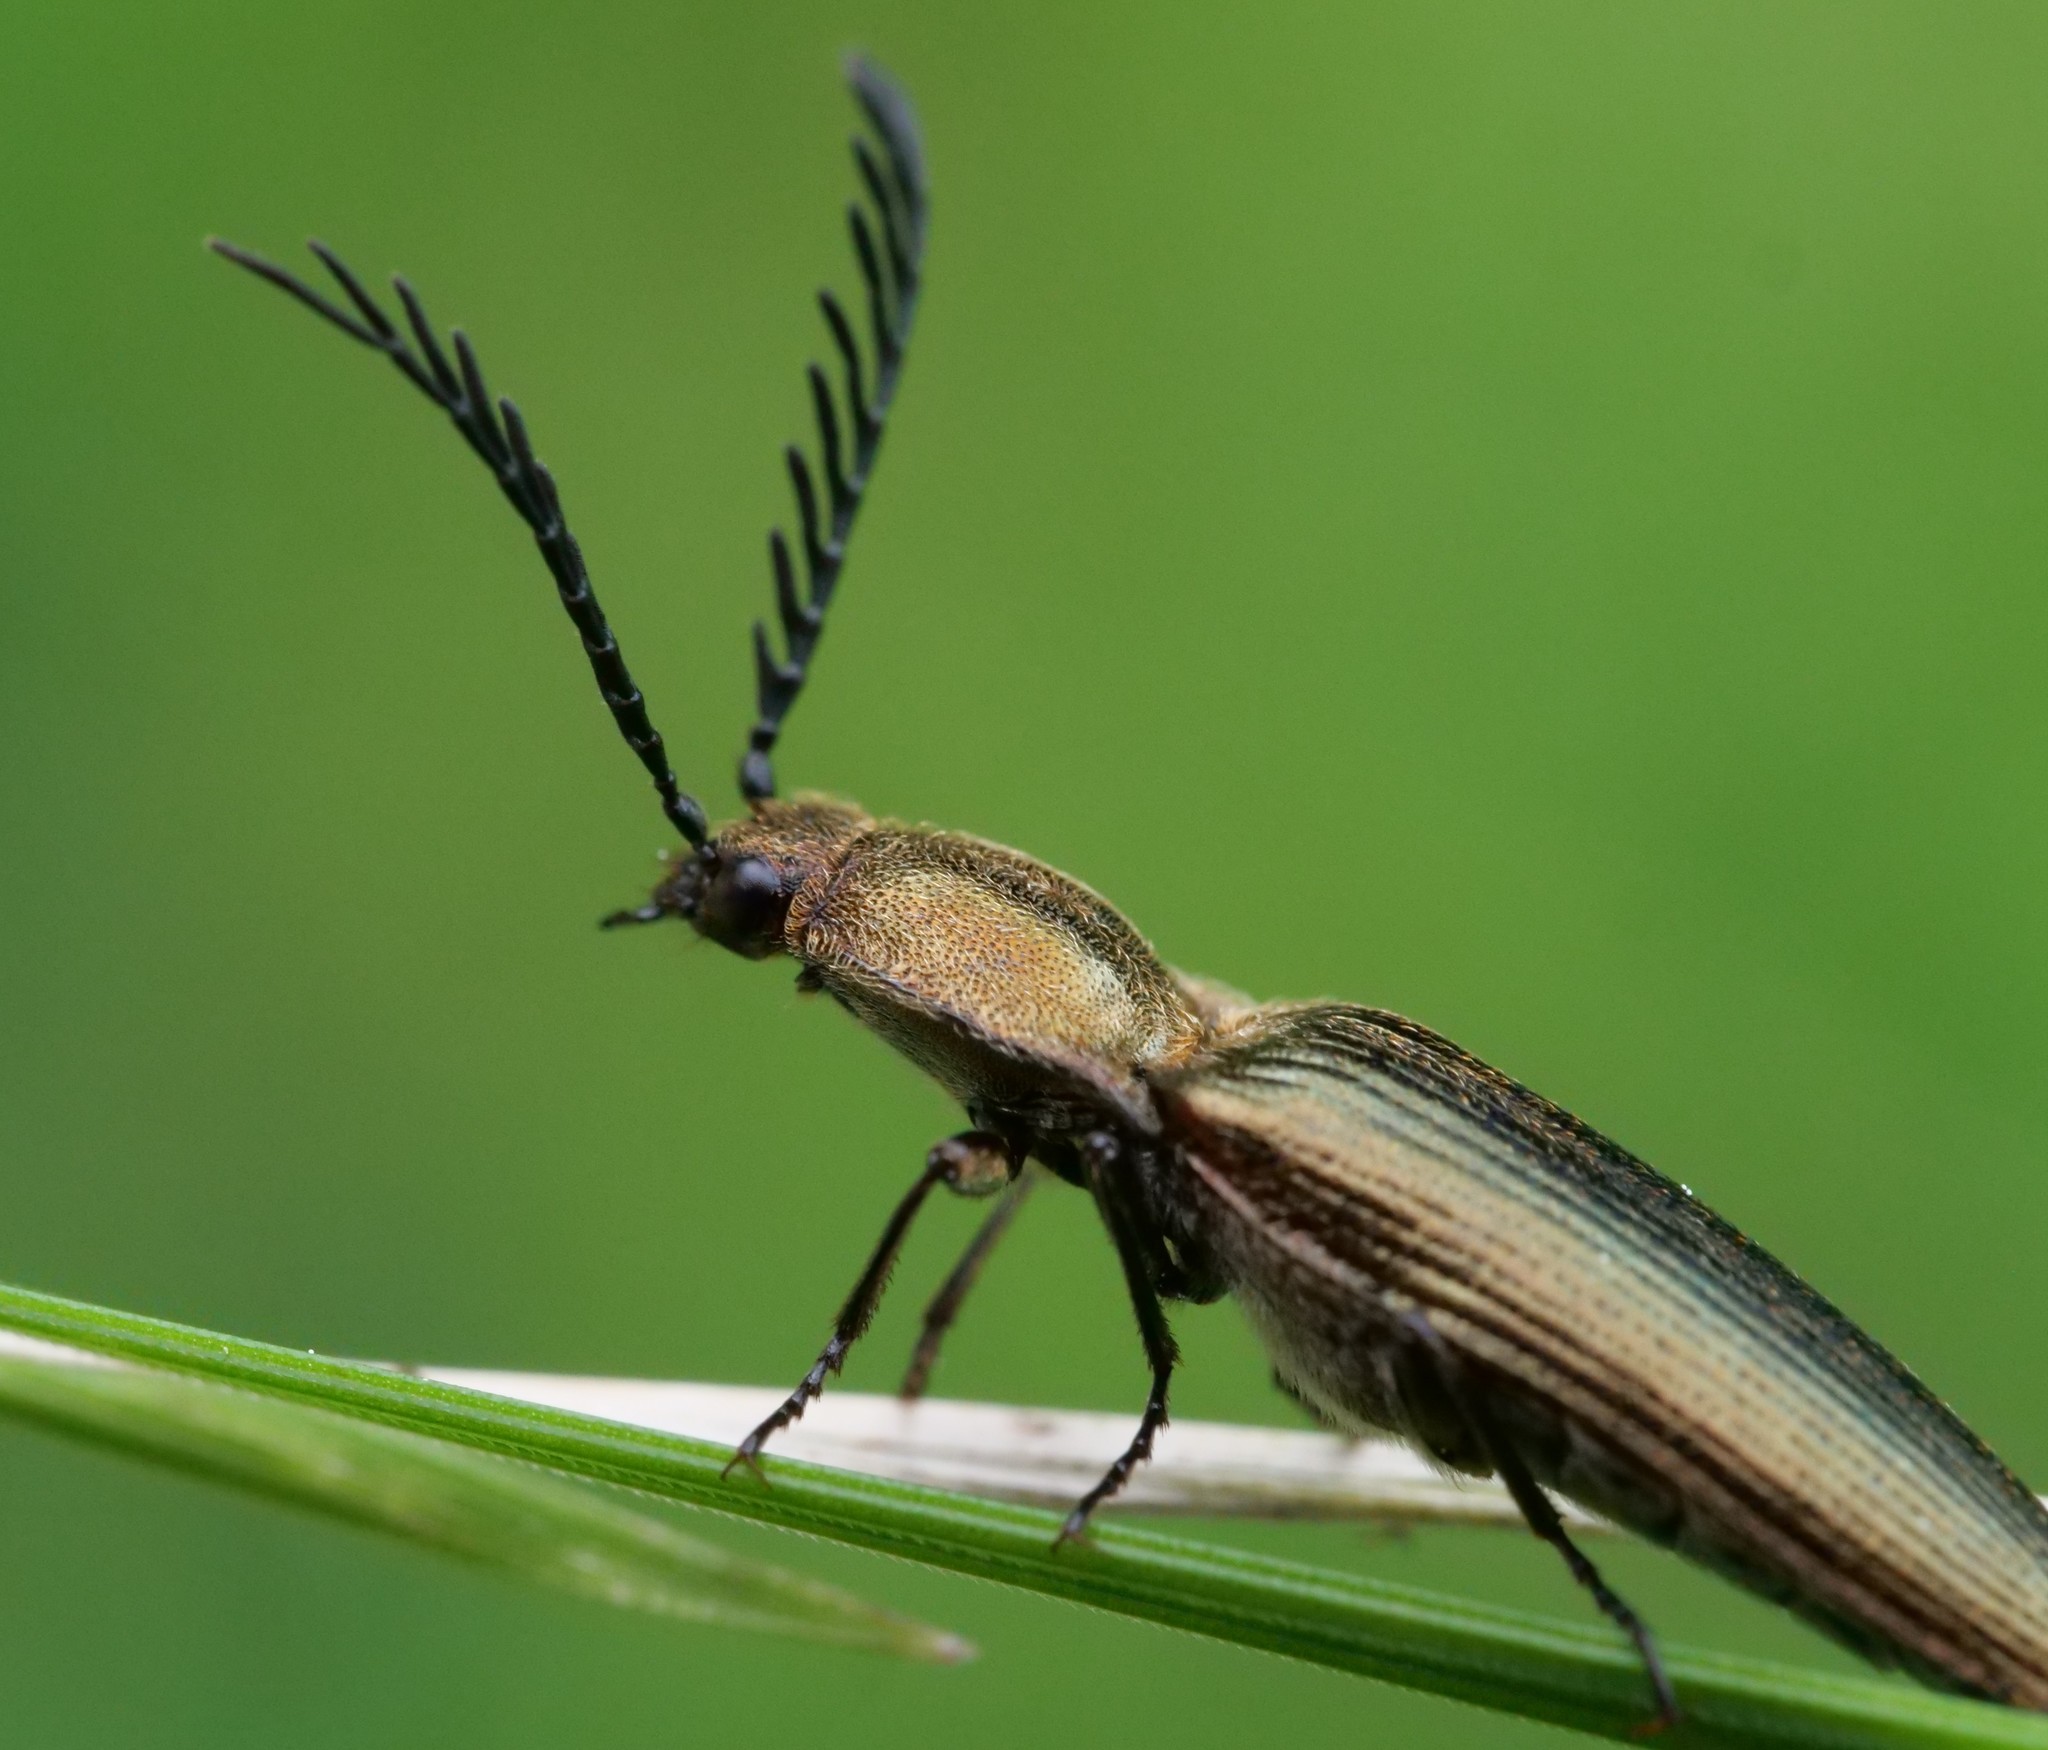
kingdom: Animalia
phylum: Arthropoda
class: Insecta
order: Coleoptera
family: Elateridae
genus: Ctenicera
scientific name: Ctenicera pectinicornis
